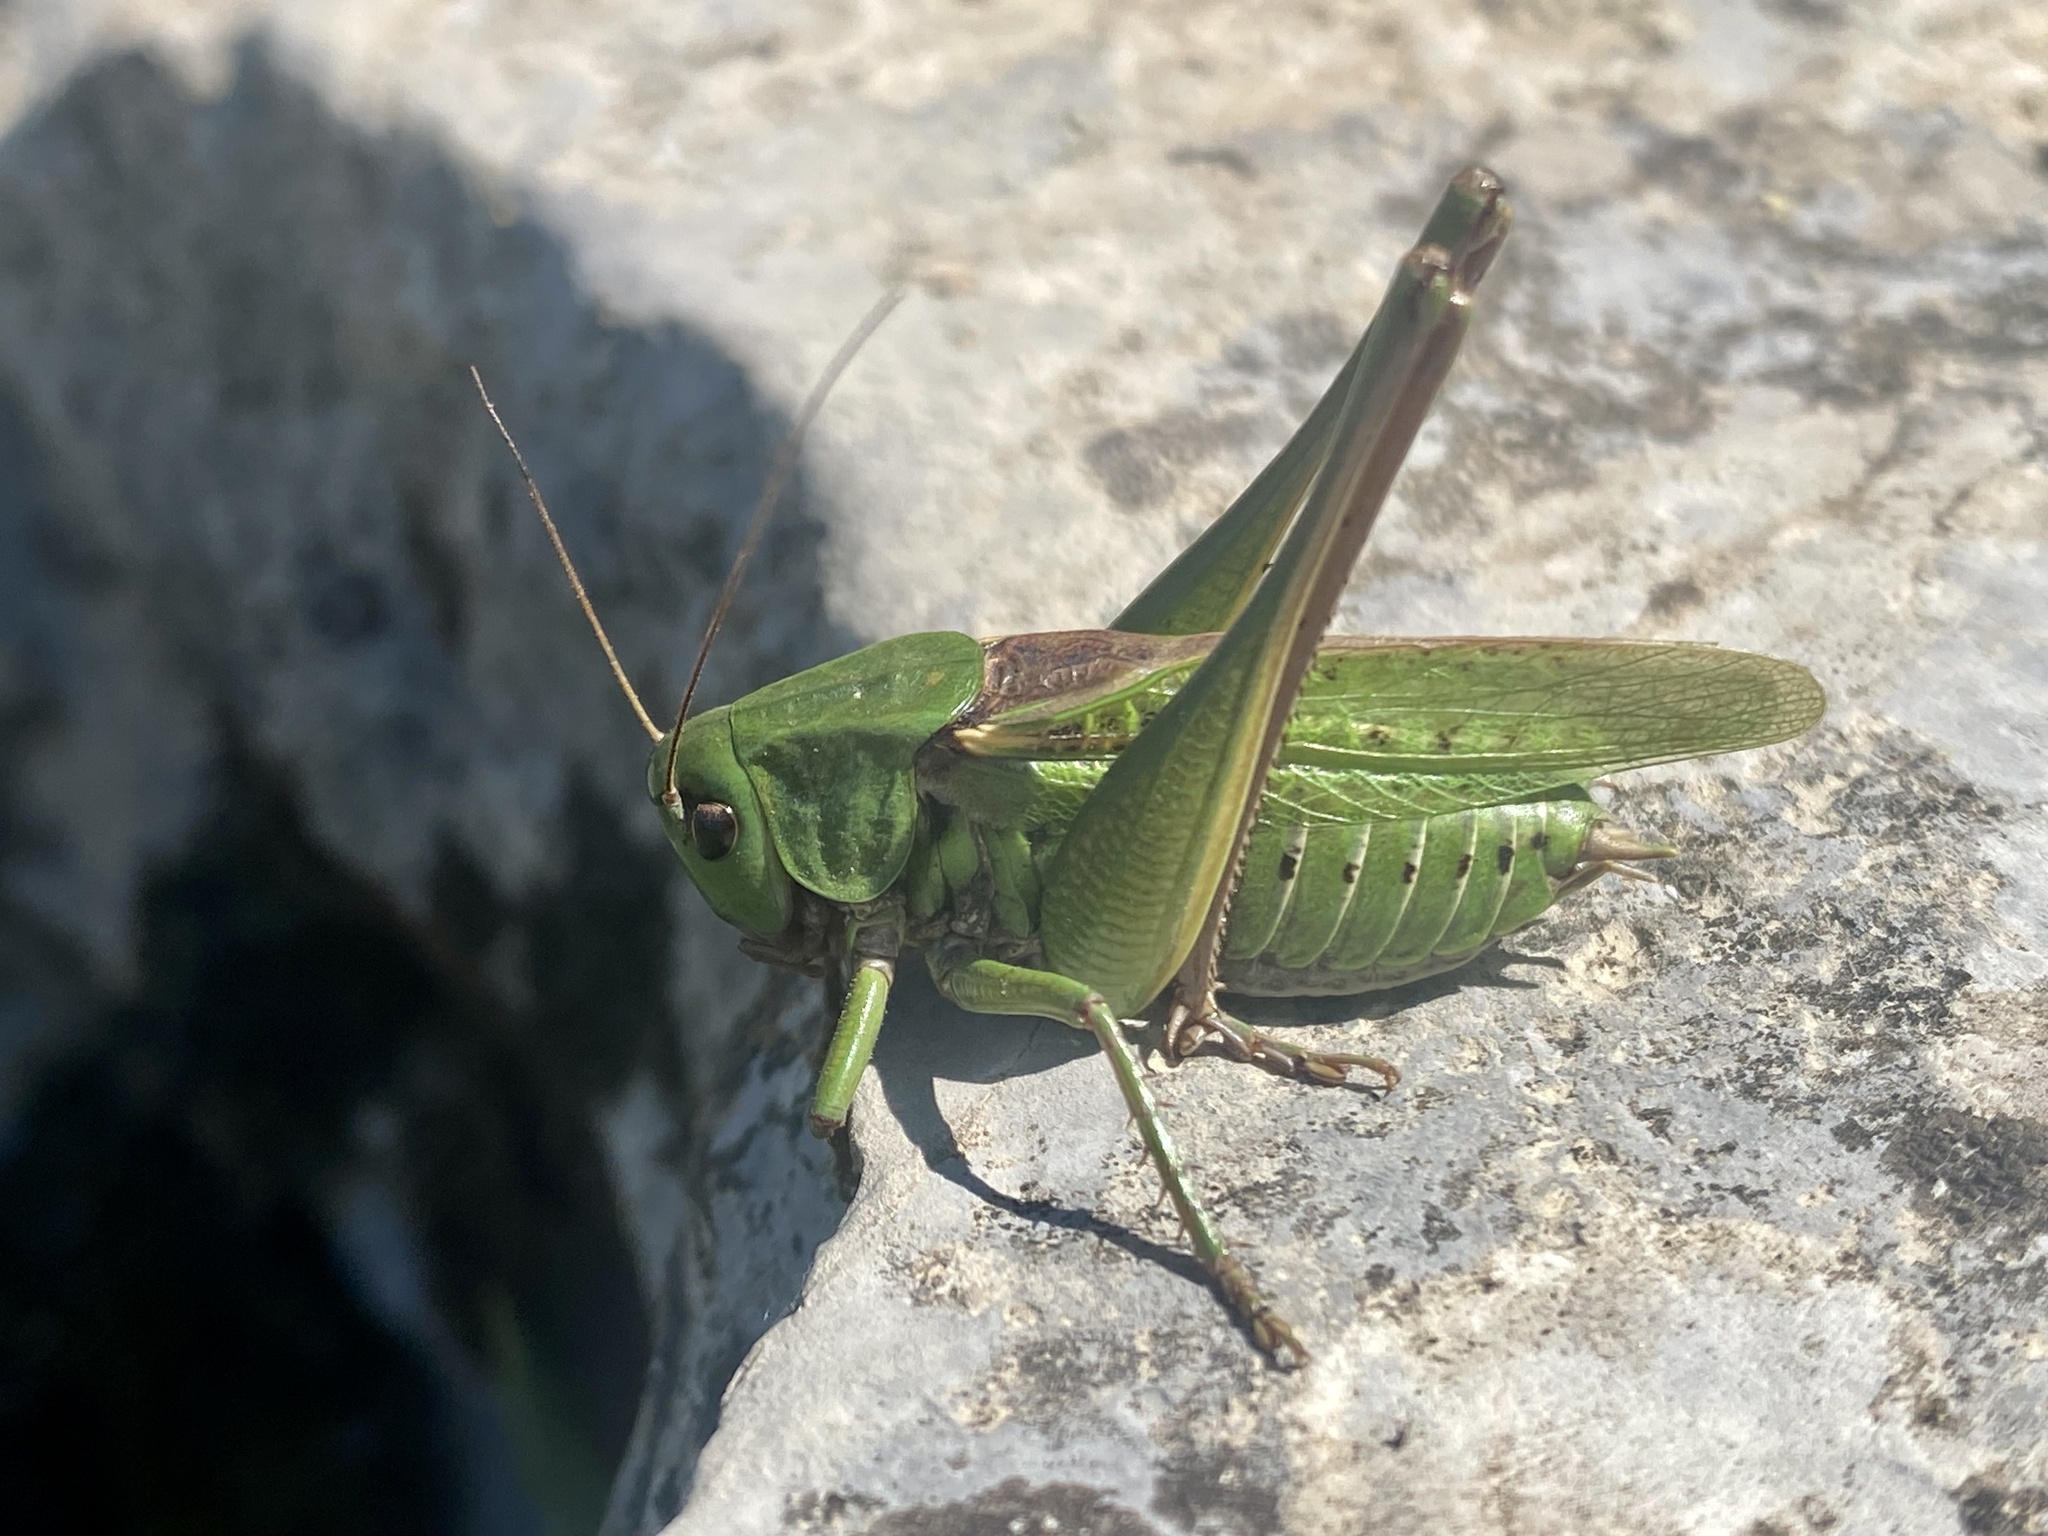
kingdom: Animalia
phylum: Arthropoda
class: Insecta
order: Orthoptera
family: Tettigoniidae
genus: Decticus
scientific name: Decticus verrucivorus
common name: Wart-biter
